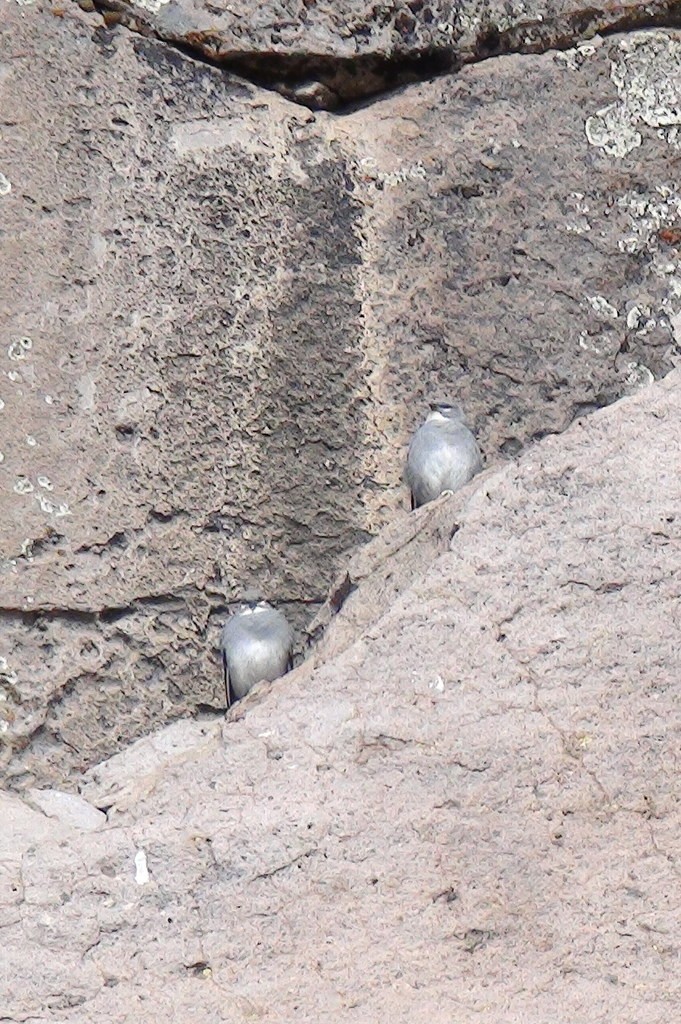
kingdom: Animalia
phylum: Chordata
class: Aves
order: Passeriformes
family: Thraupidae
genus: Idiopsar
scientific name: Idiopsar speculifer
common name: Glacier finch
